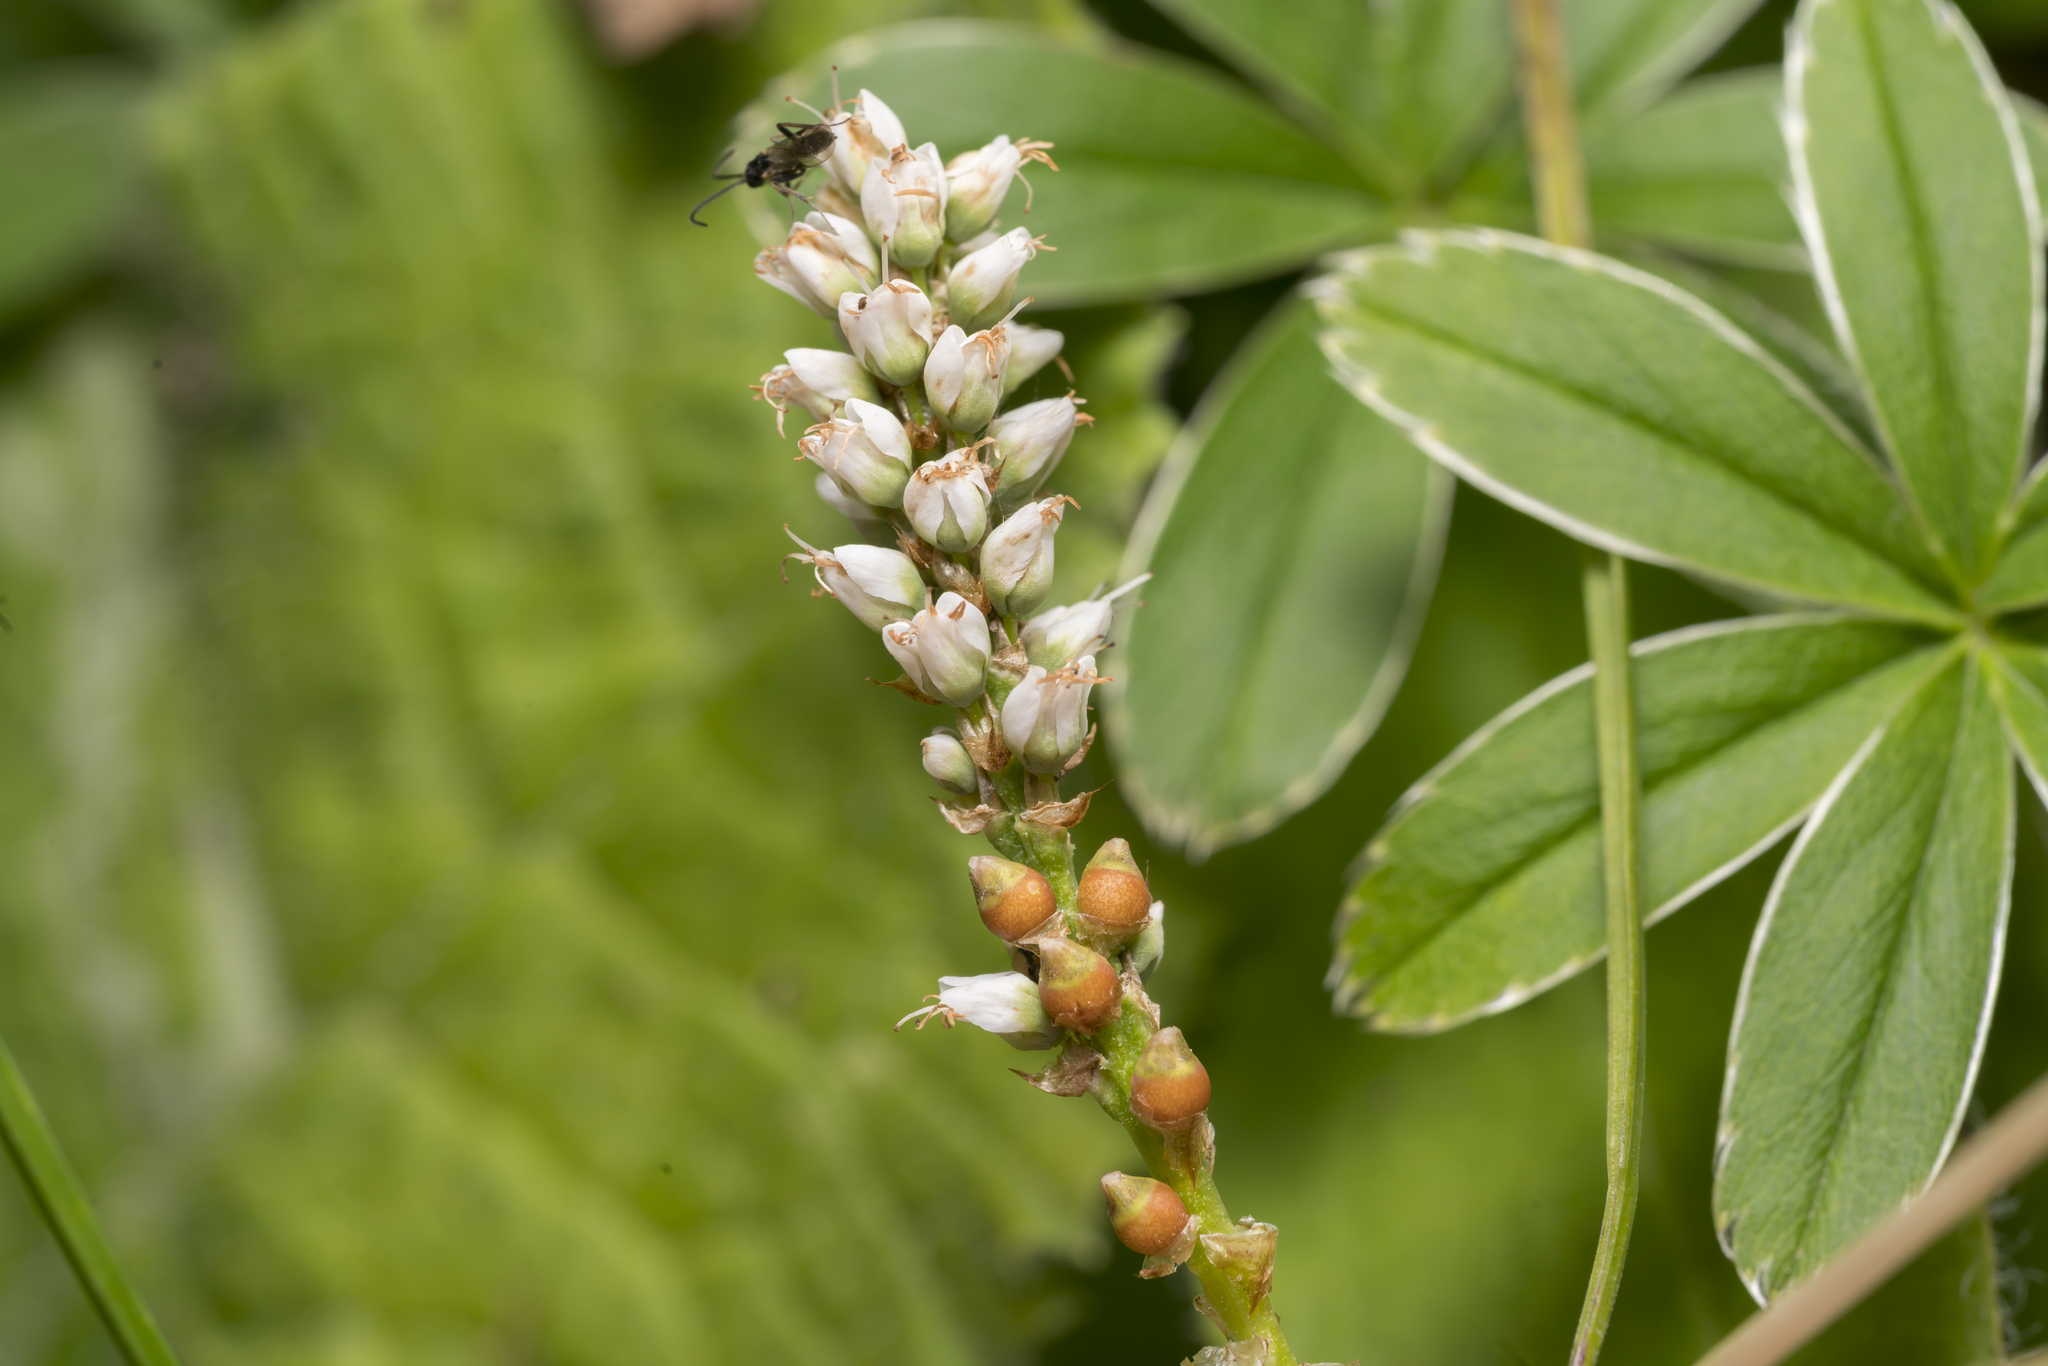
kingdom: Plantae
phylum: Tracheophyta
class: Magnoliopsida
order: Caryophyllales
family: Polygonaceae
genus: Bistorta
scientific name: Bistorta vivipara
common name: Alpine bistort
